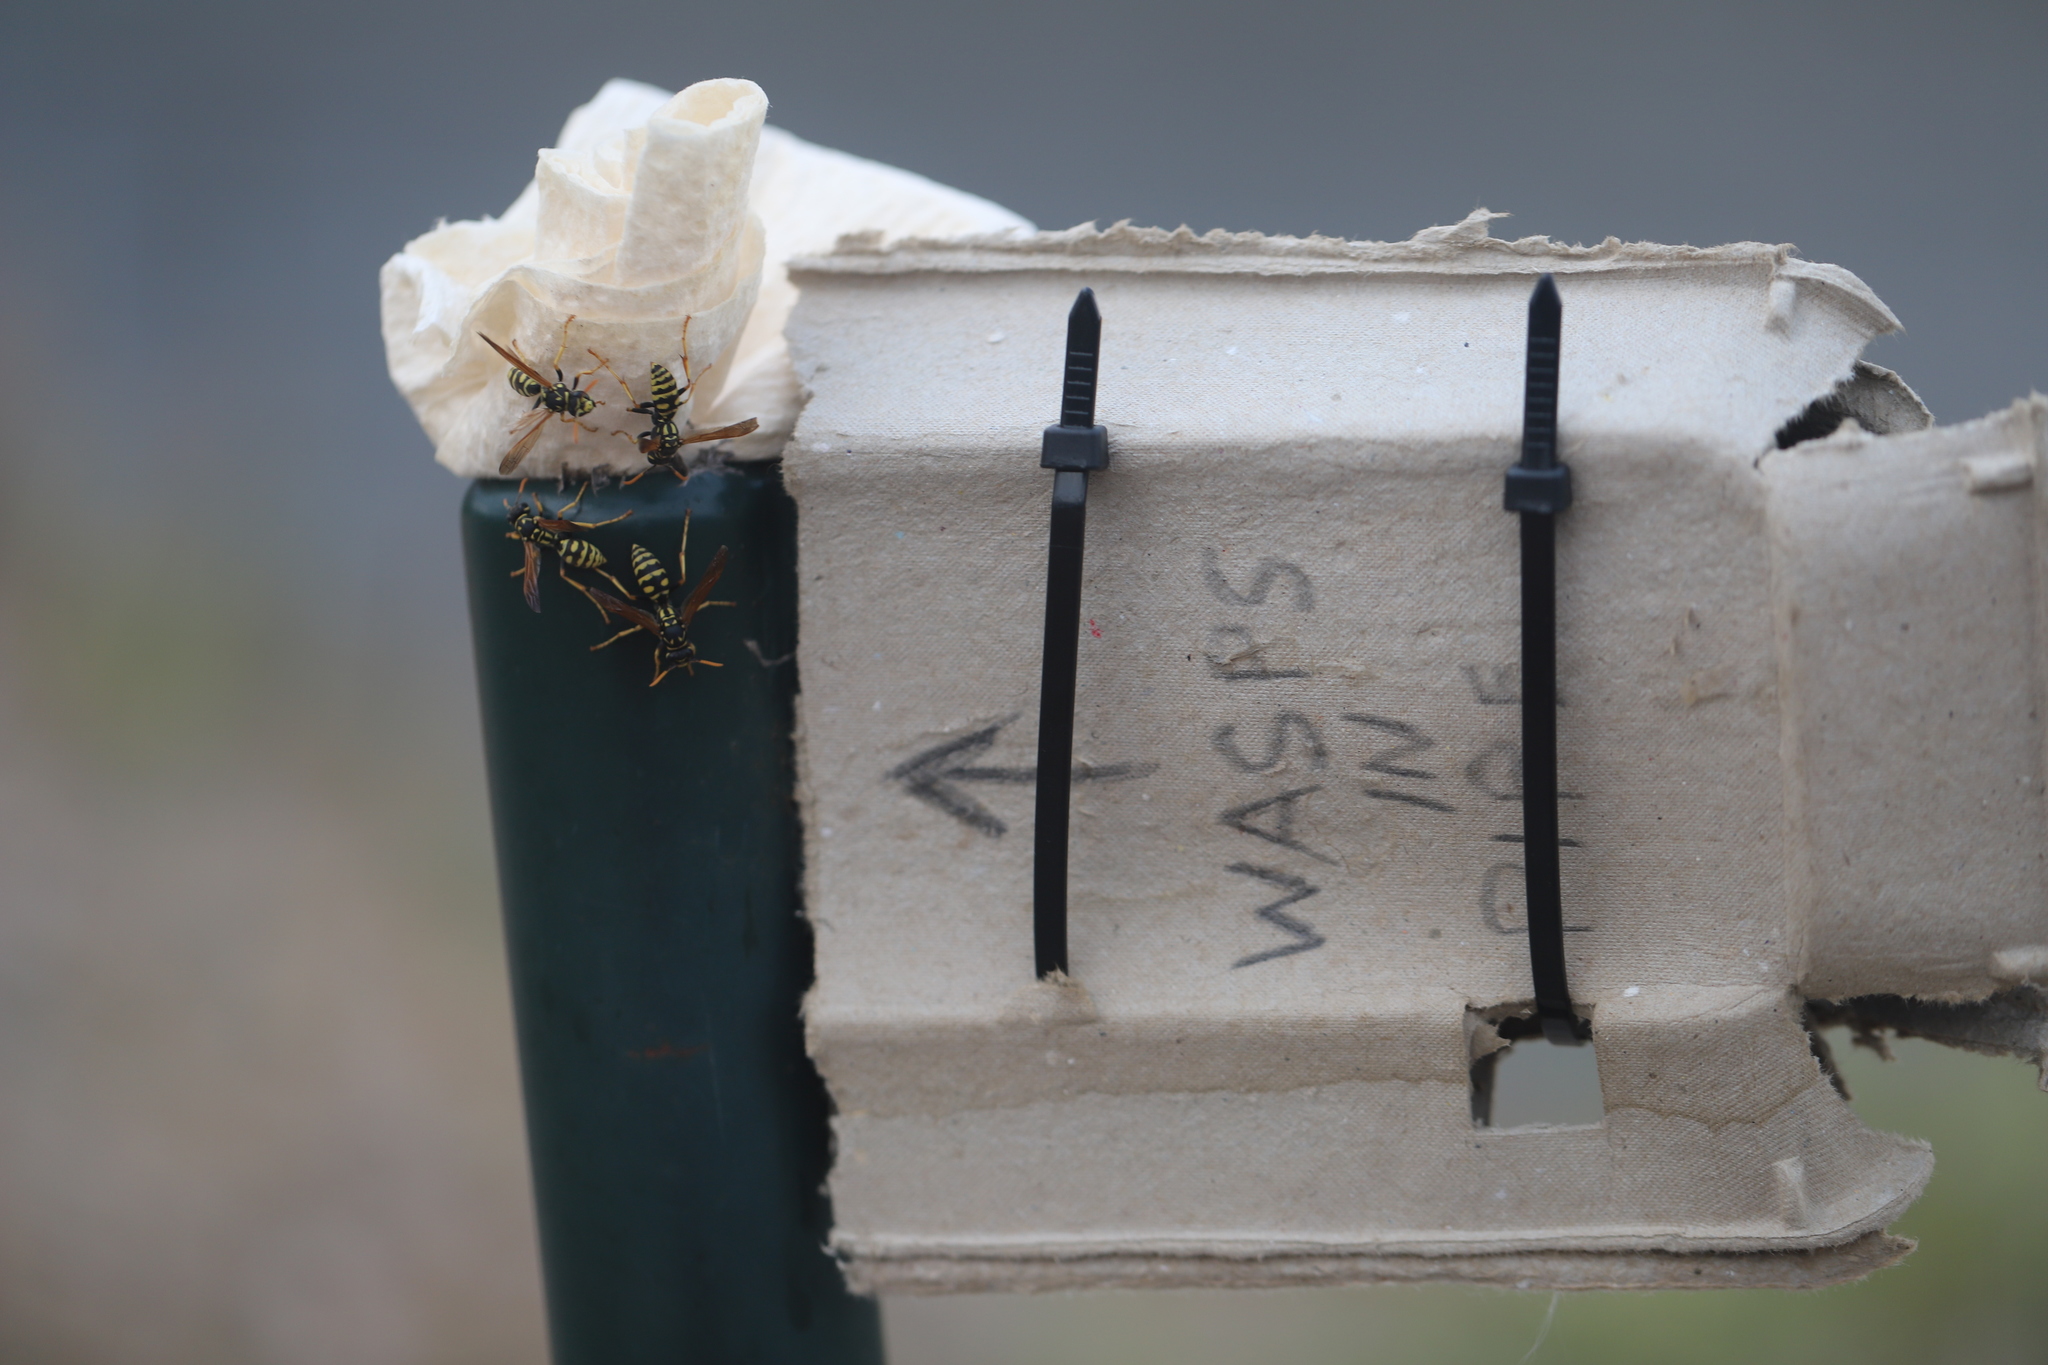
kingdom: Animalia
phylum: Arthropoda
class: Insecta
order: Hymenoptera
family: Eumenidae
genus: Polistes
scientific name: Polistes dominula
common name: Paper wasp
